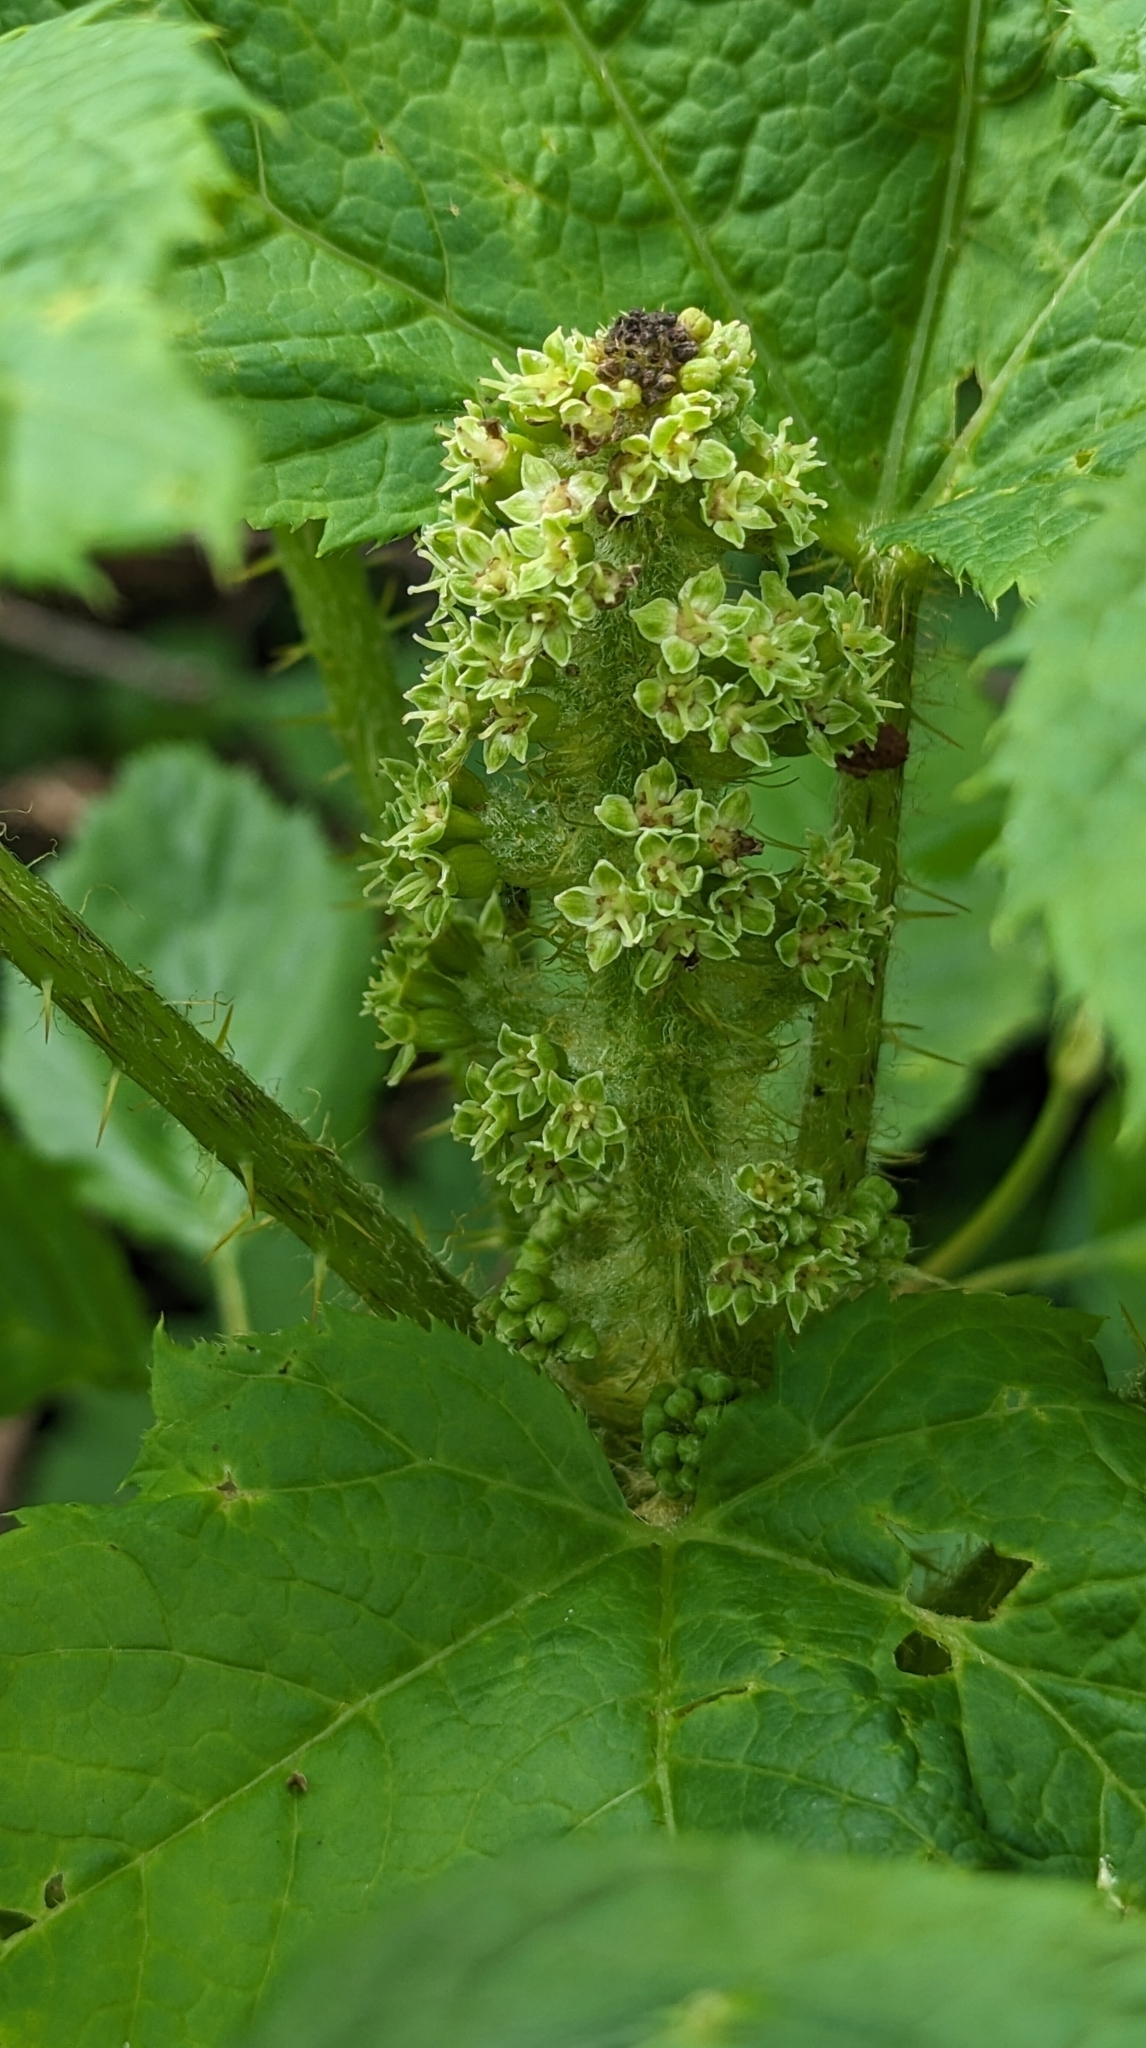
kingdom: Plantae
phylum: Tracheophyta
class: Magnoliopsida
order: Apiales
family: Araliaceae
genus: Oplopanax
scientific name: Oplopanax horridus
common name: Devil's walking-stick
